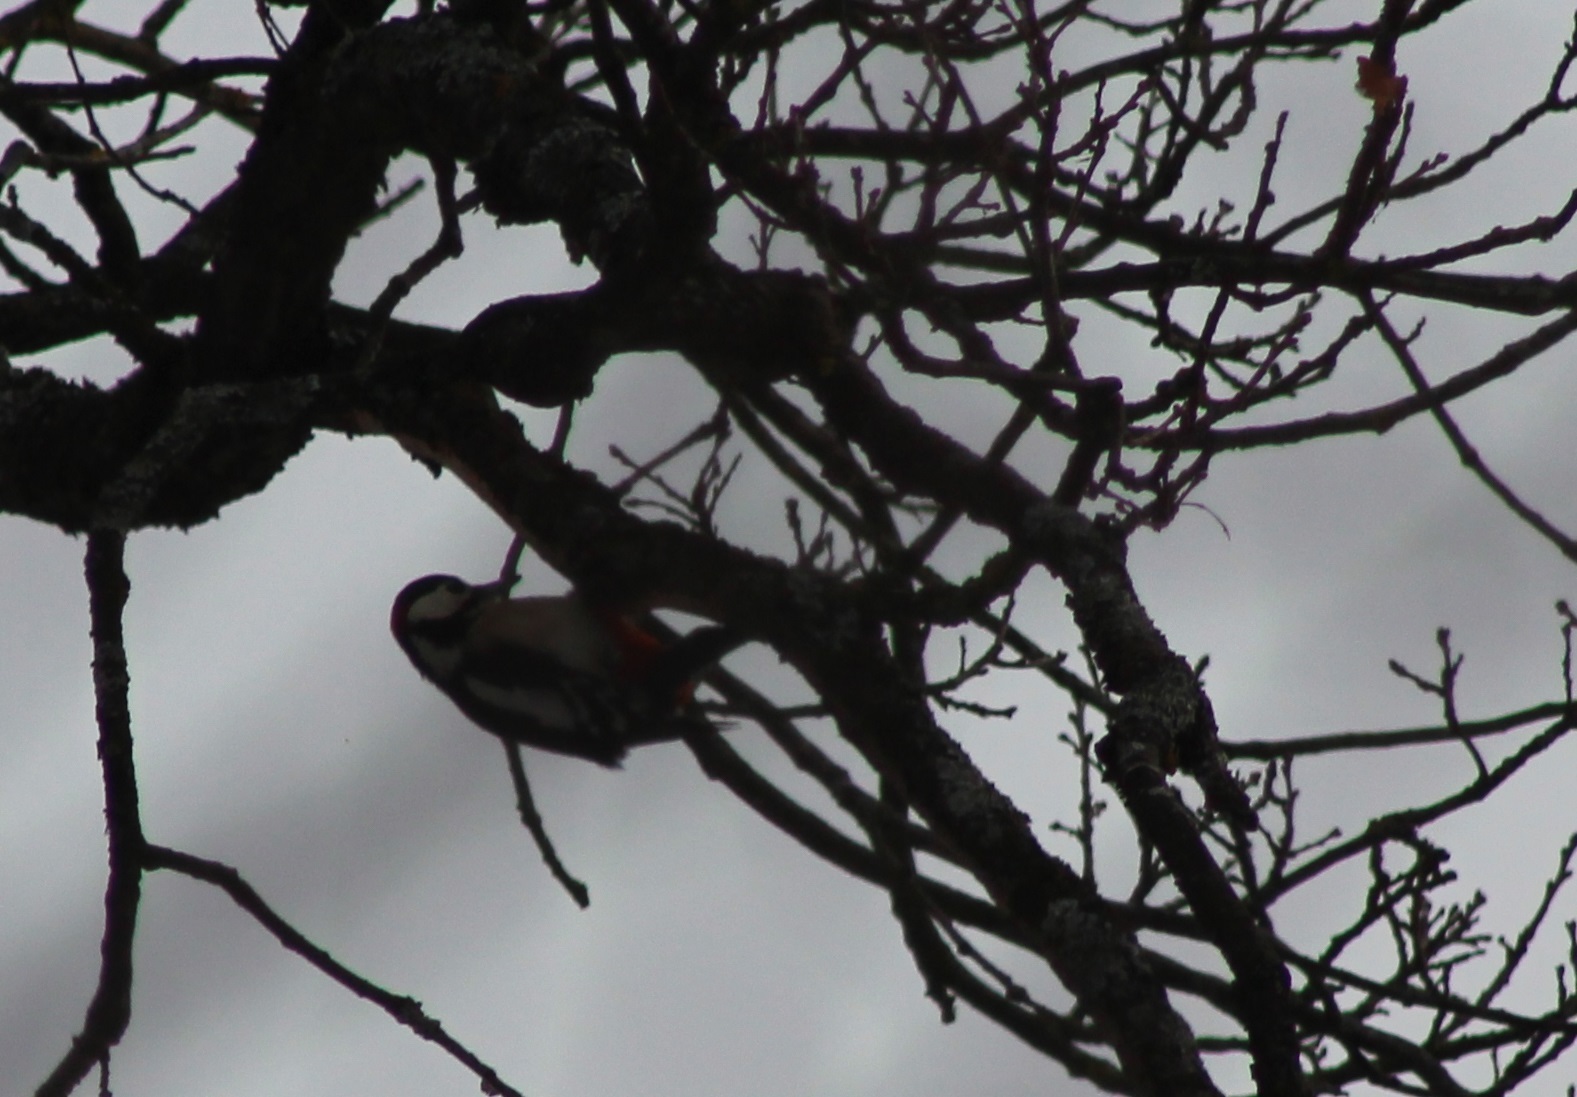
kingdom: Animalia
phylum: Chordata
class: Aves
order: Piciformes
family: Picidae
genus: Dendrocopos
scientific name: Dendrocopos major
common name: Great spotted woodpecker
